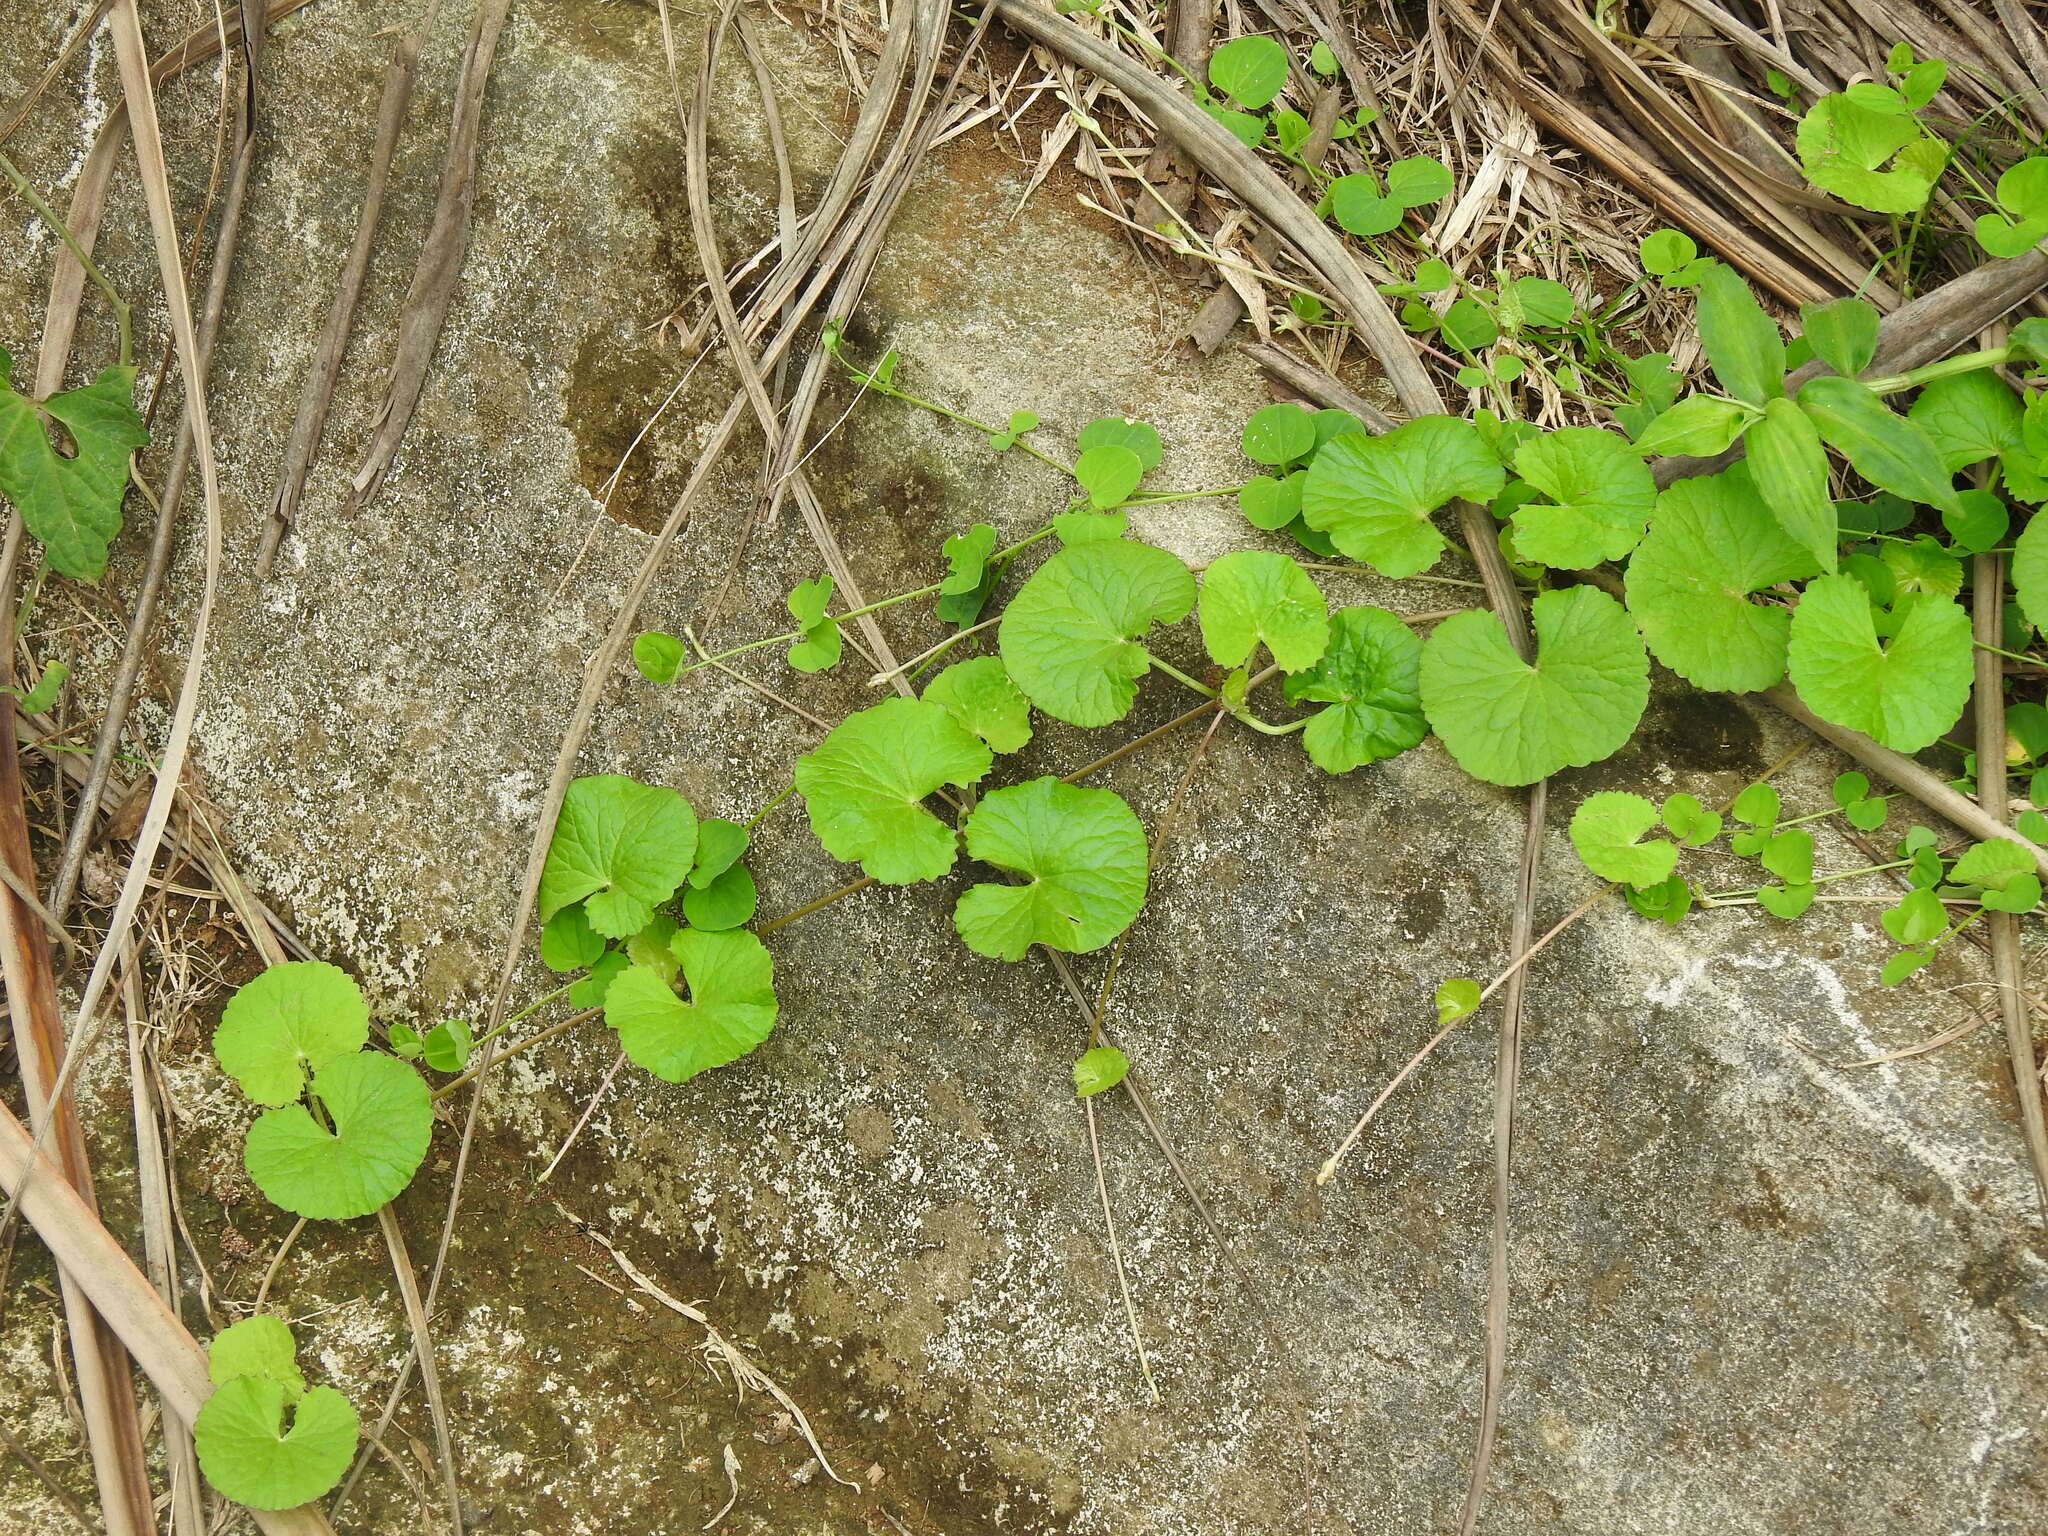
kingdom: Plantae
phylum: Tracheophyta
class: Magnoliopsida
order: Apiales
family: Apiaceae
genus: Centella
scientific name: Centella asiatica
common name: Spadeleaf
